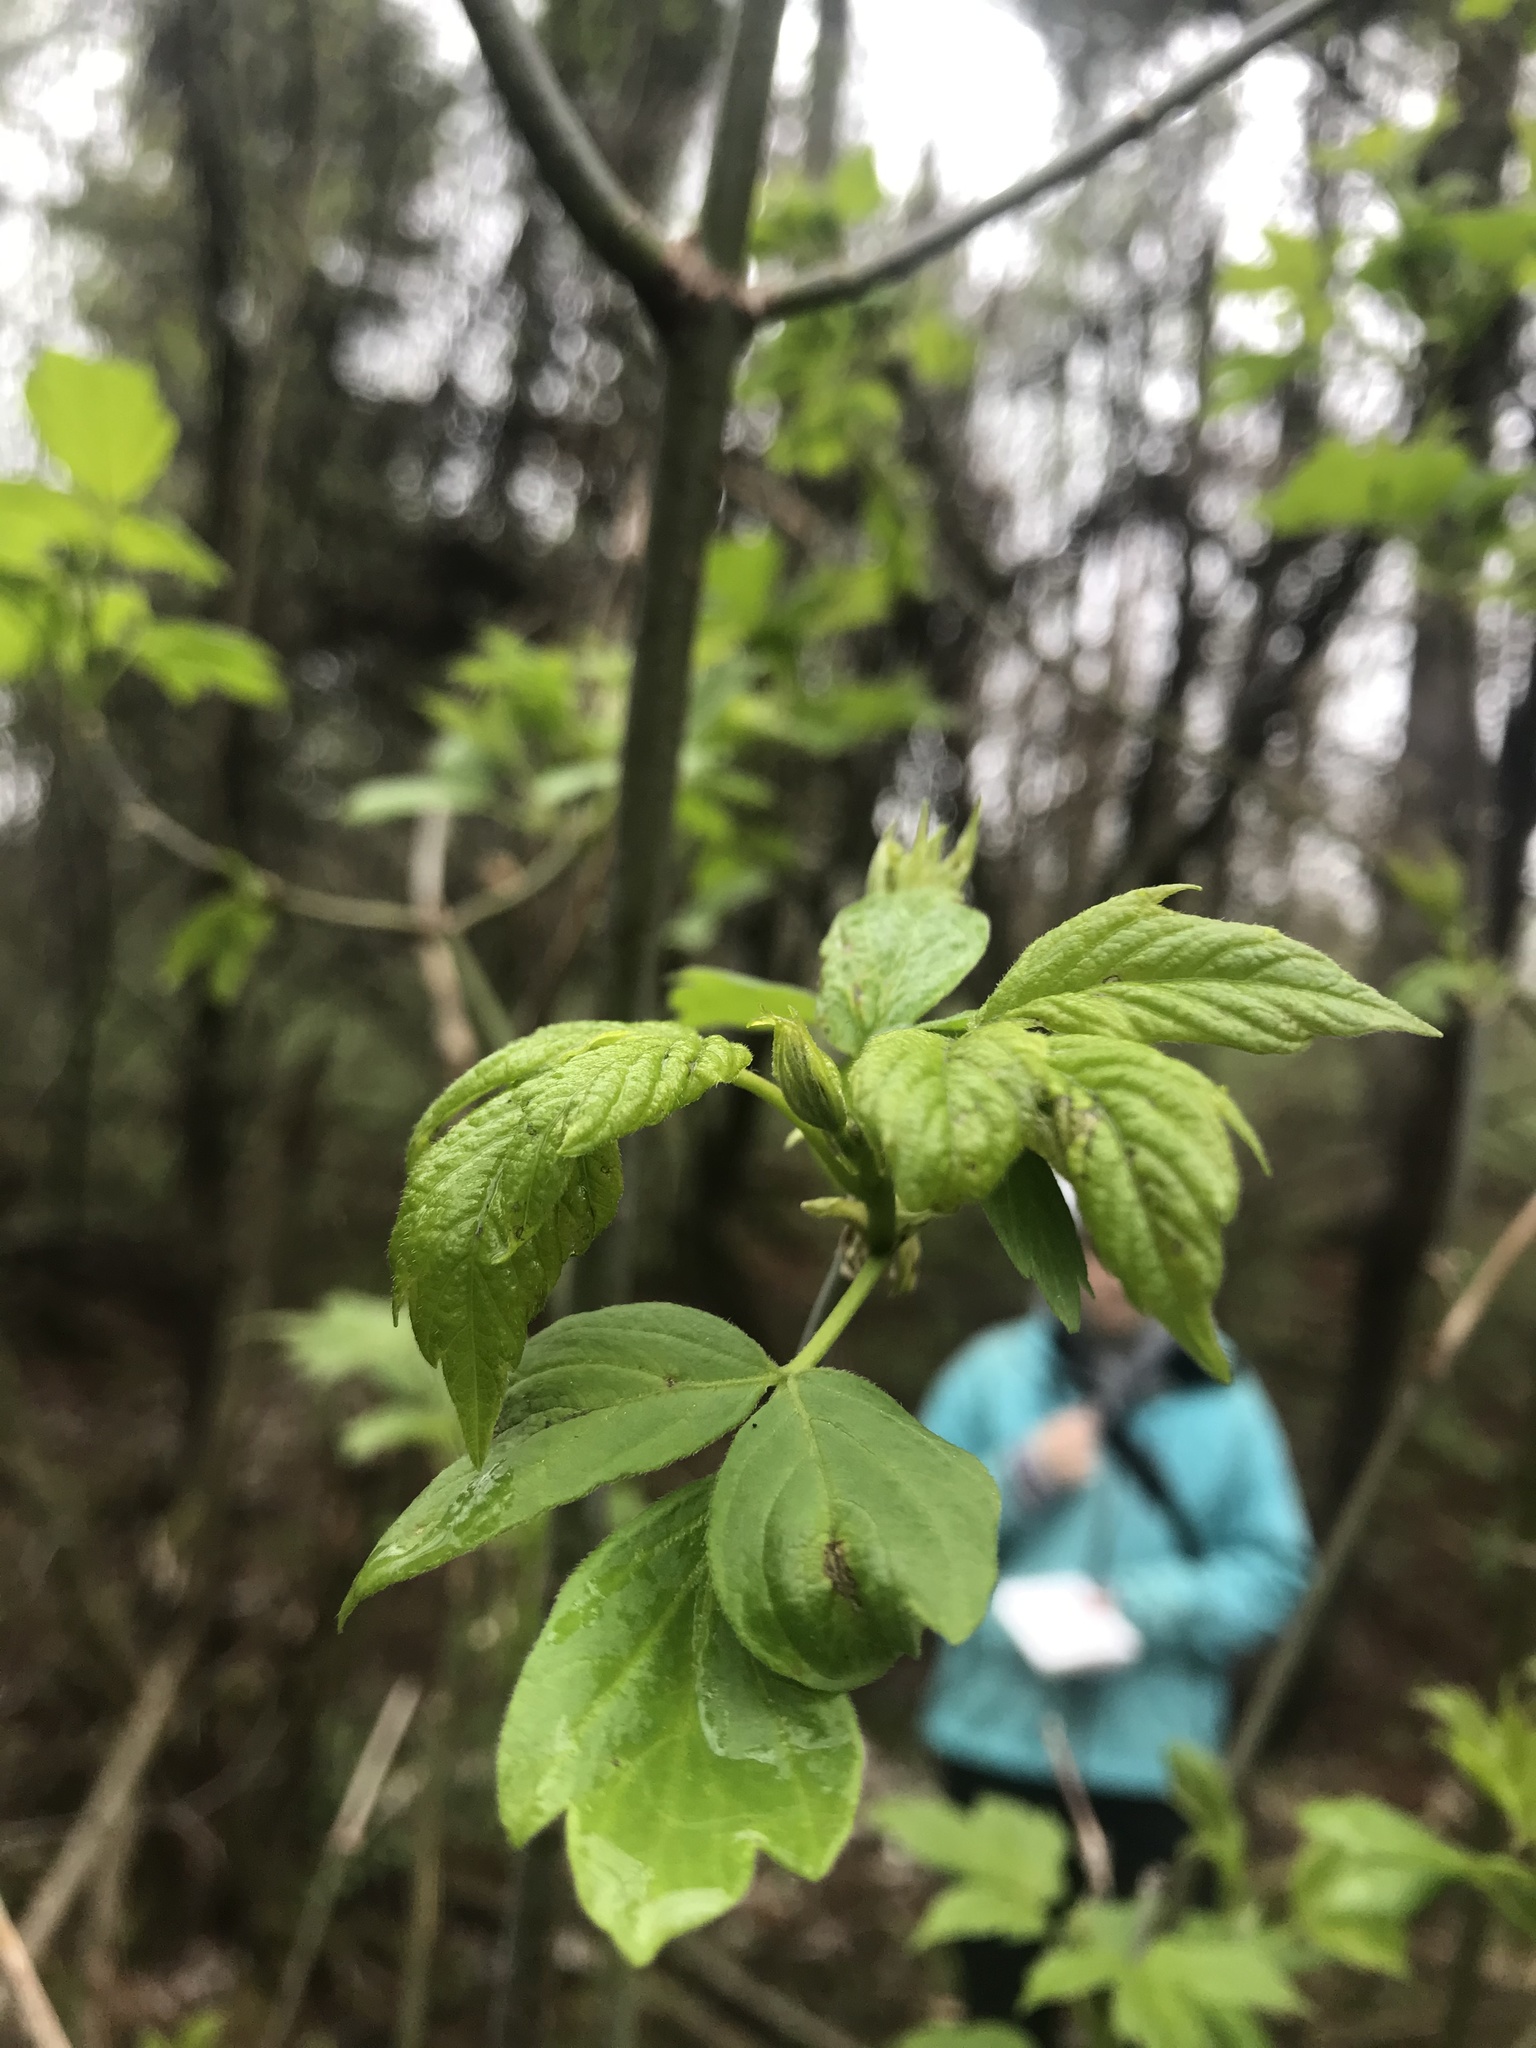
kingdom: Plantae
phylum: Tracheophyta
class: Magnoliopsida
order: Sapindales
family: Sapindaceae
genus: Acer
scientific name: Acer negundo
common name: Ashleaf maple
